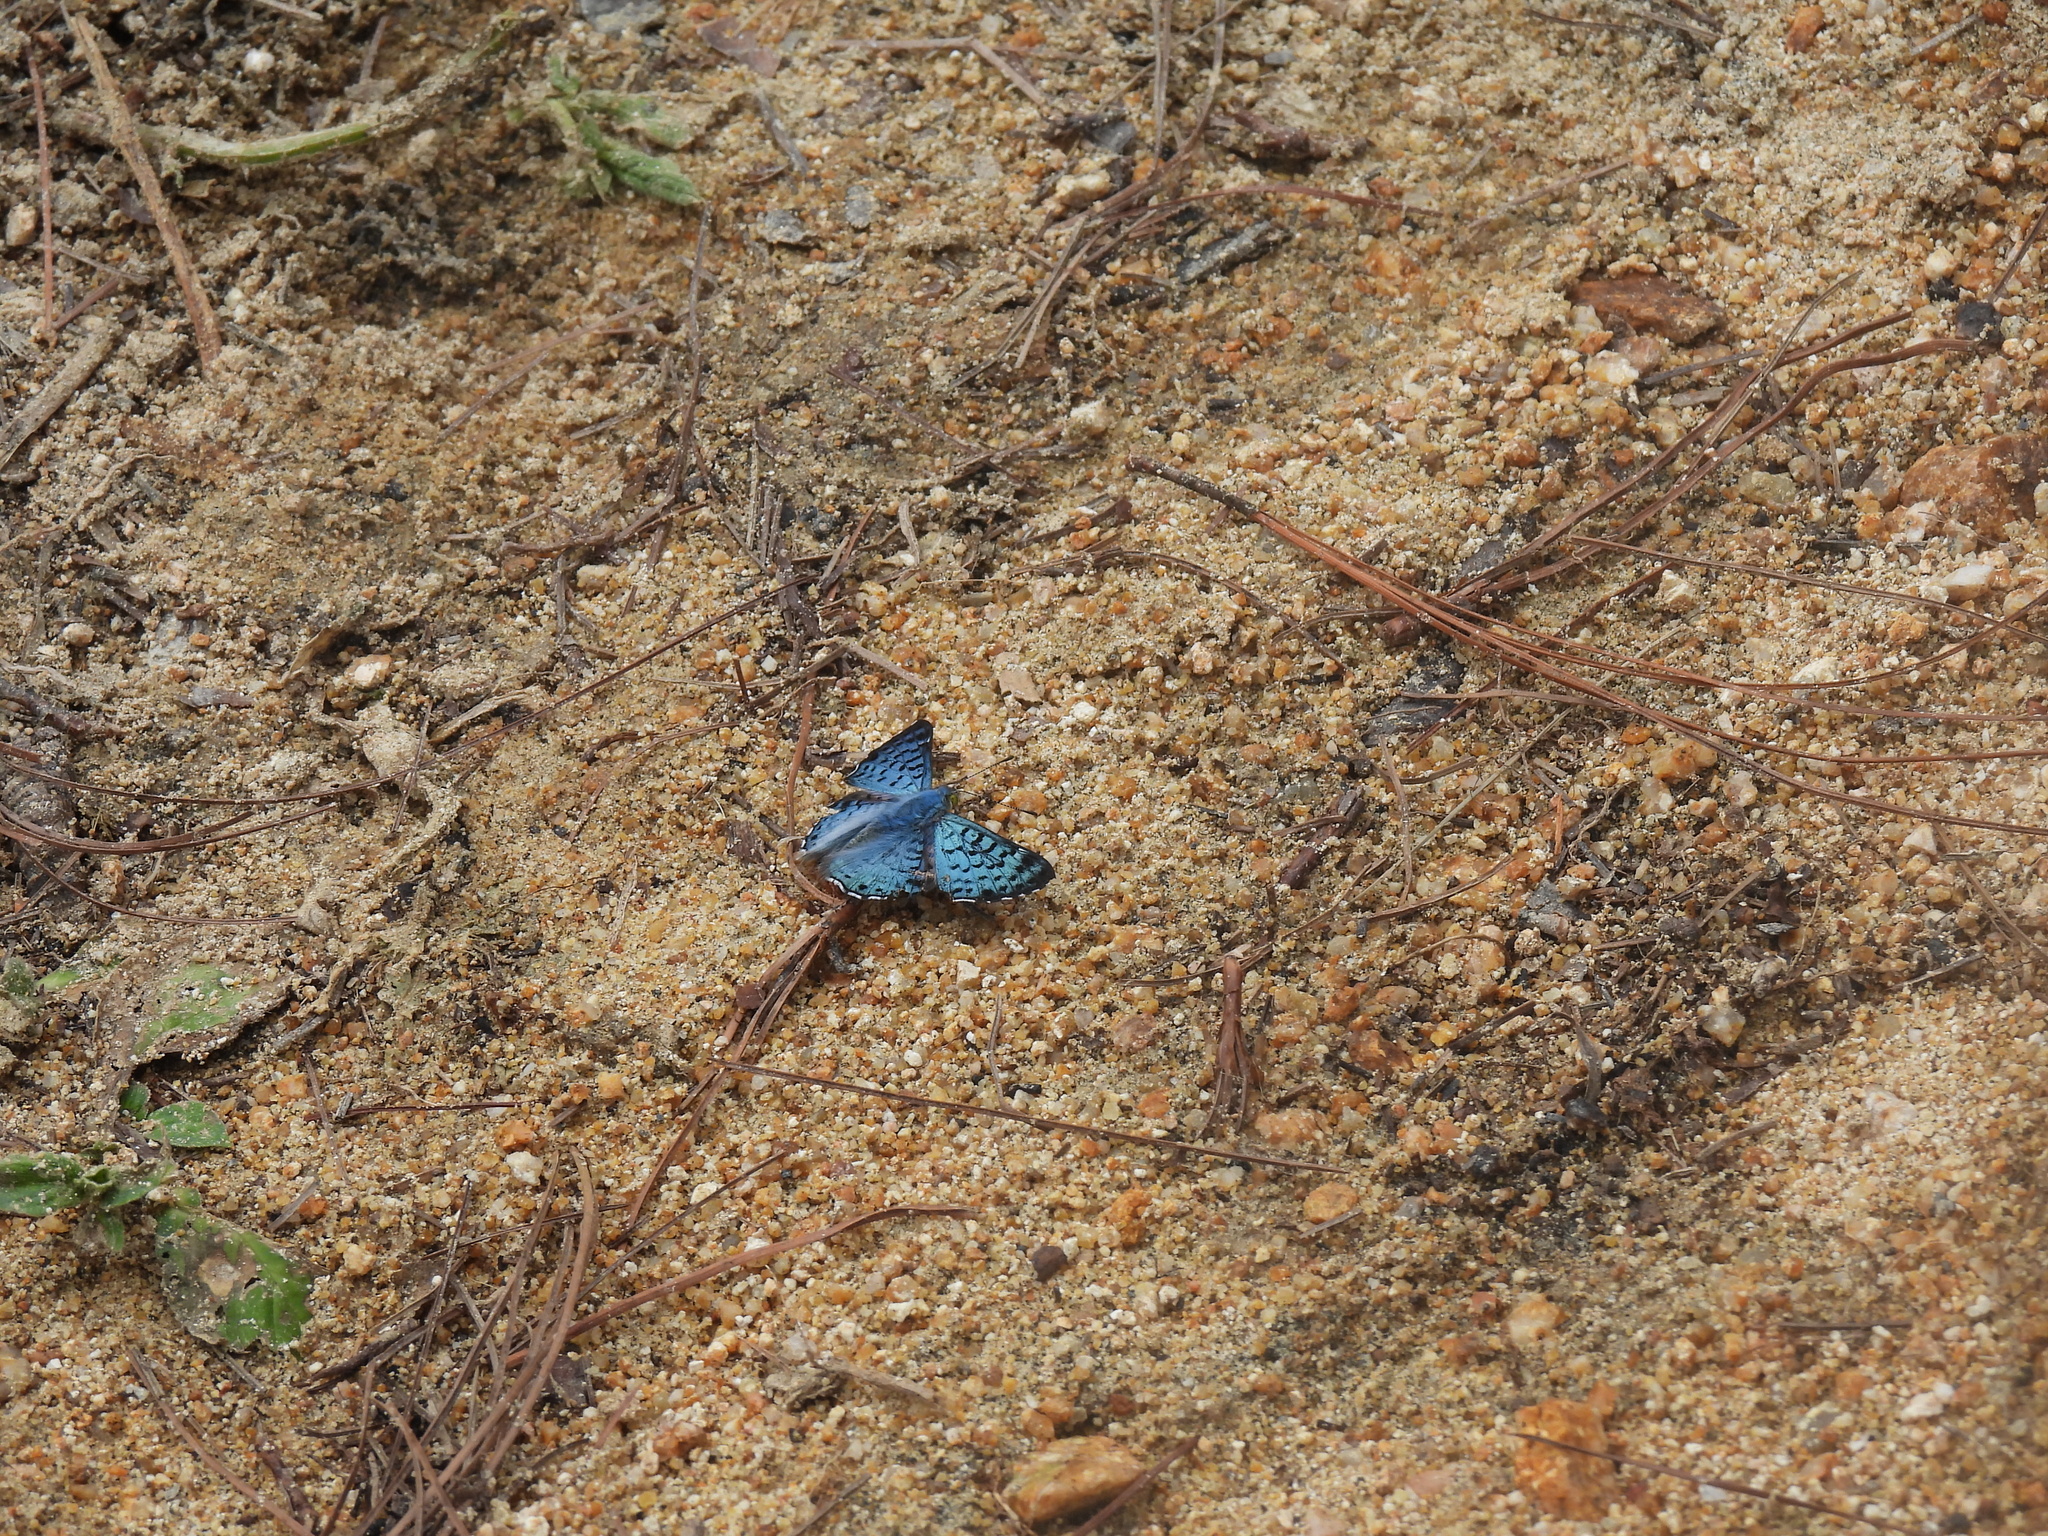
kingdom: Animalia
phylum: Arthropoda
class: Insecta
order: Lepidoptera
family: Riodinidae
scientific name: Riodinidae
